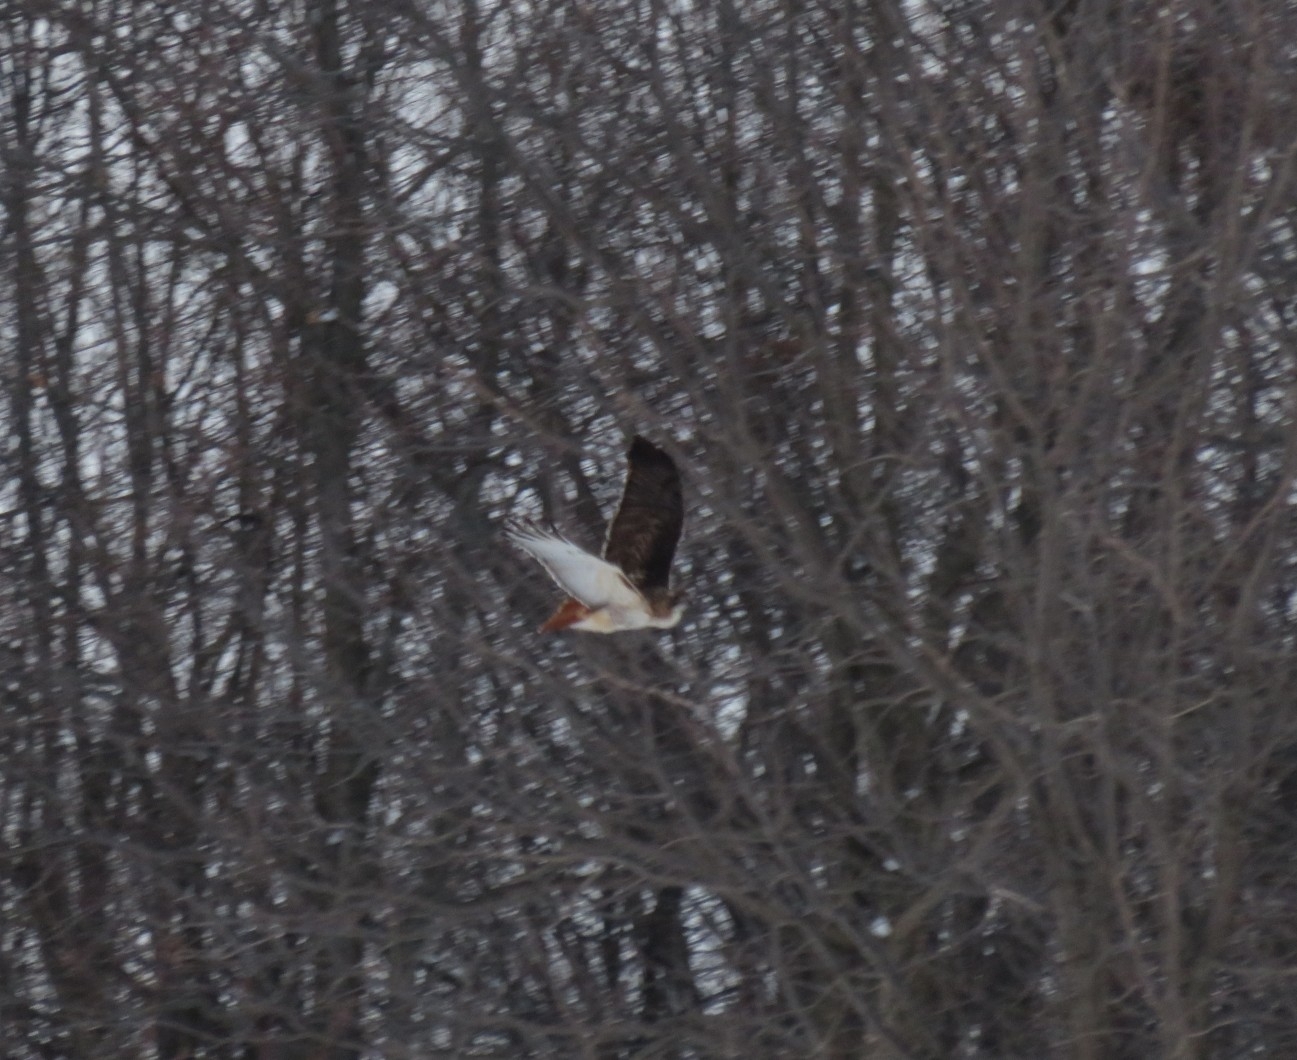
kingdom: Animalia
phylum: Chordata
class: Aves
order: Accipitriformes
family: Accipitridae
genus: Buteo
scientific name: Buteo jamaicensis
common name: Red-tailed hawk
